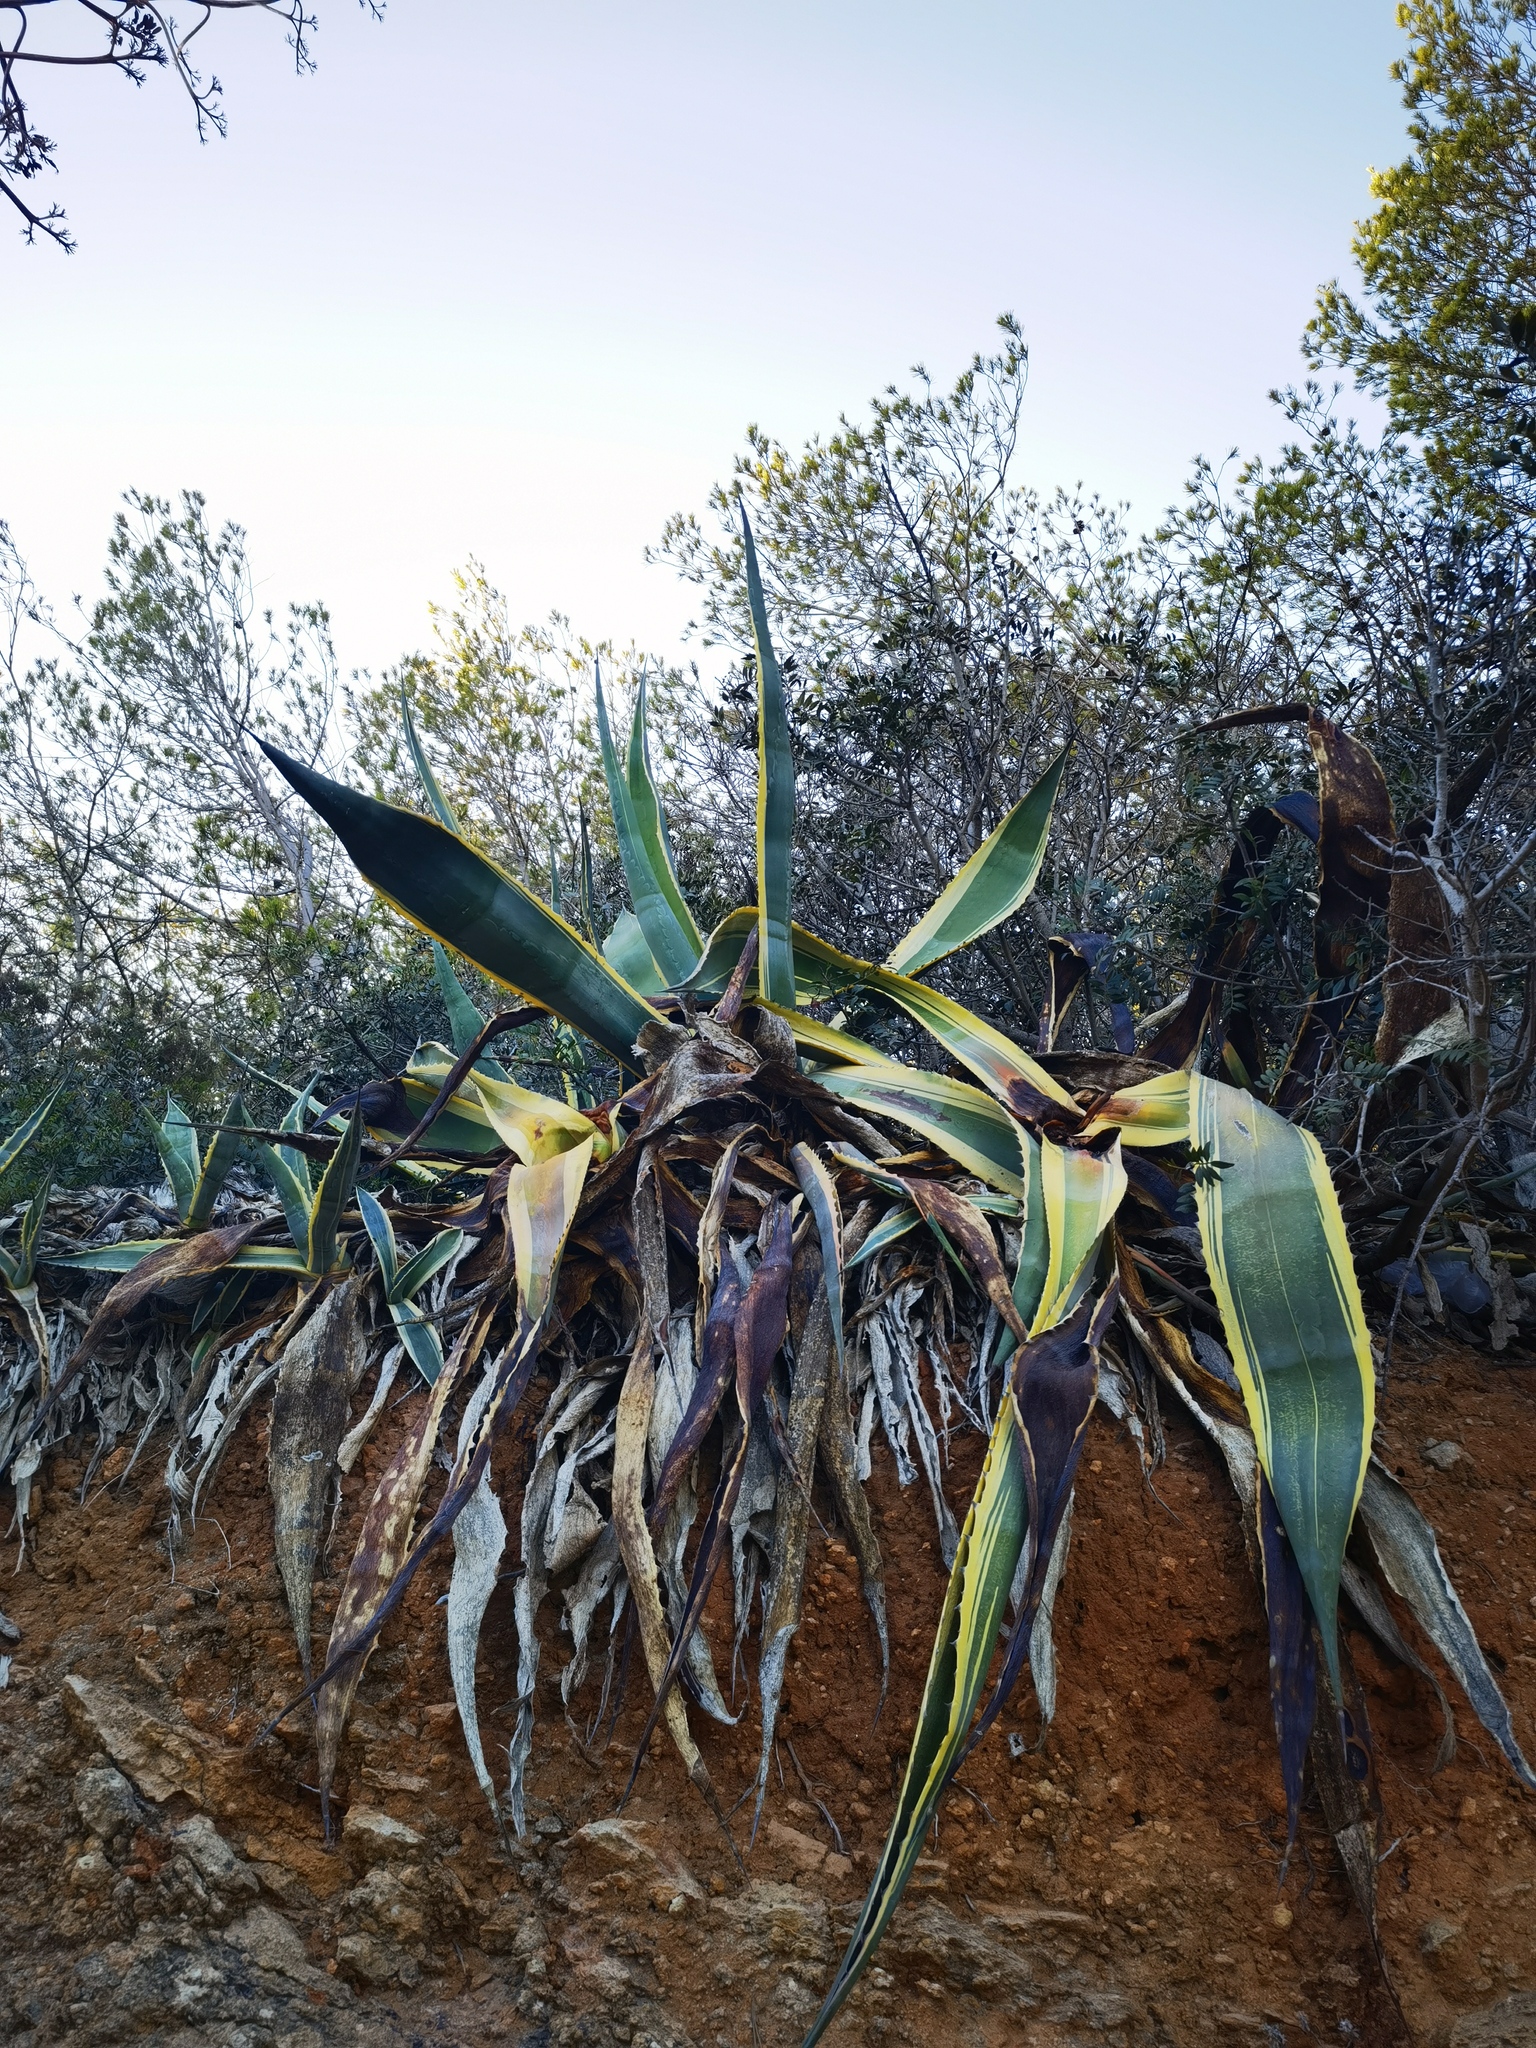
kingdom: Plantae
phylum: Tracheophyta
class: Liliopsida
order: Asparagales
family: Asparagaceae
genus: Agave
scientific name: Agave americana
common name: Centuryplant
